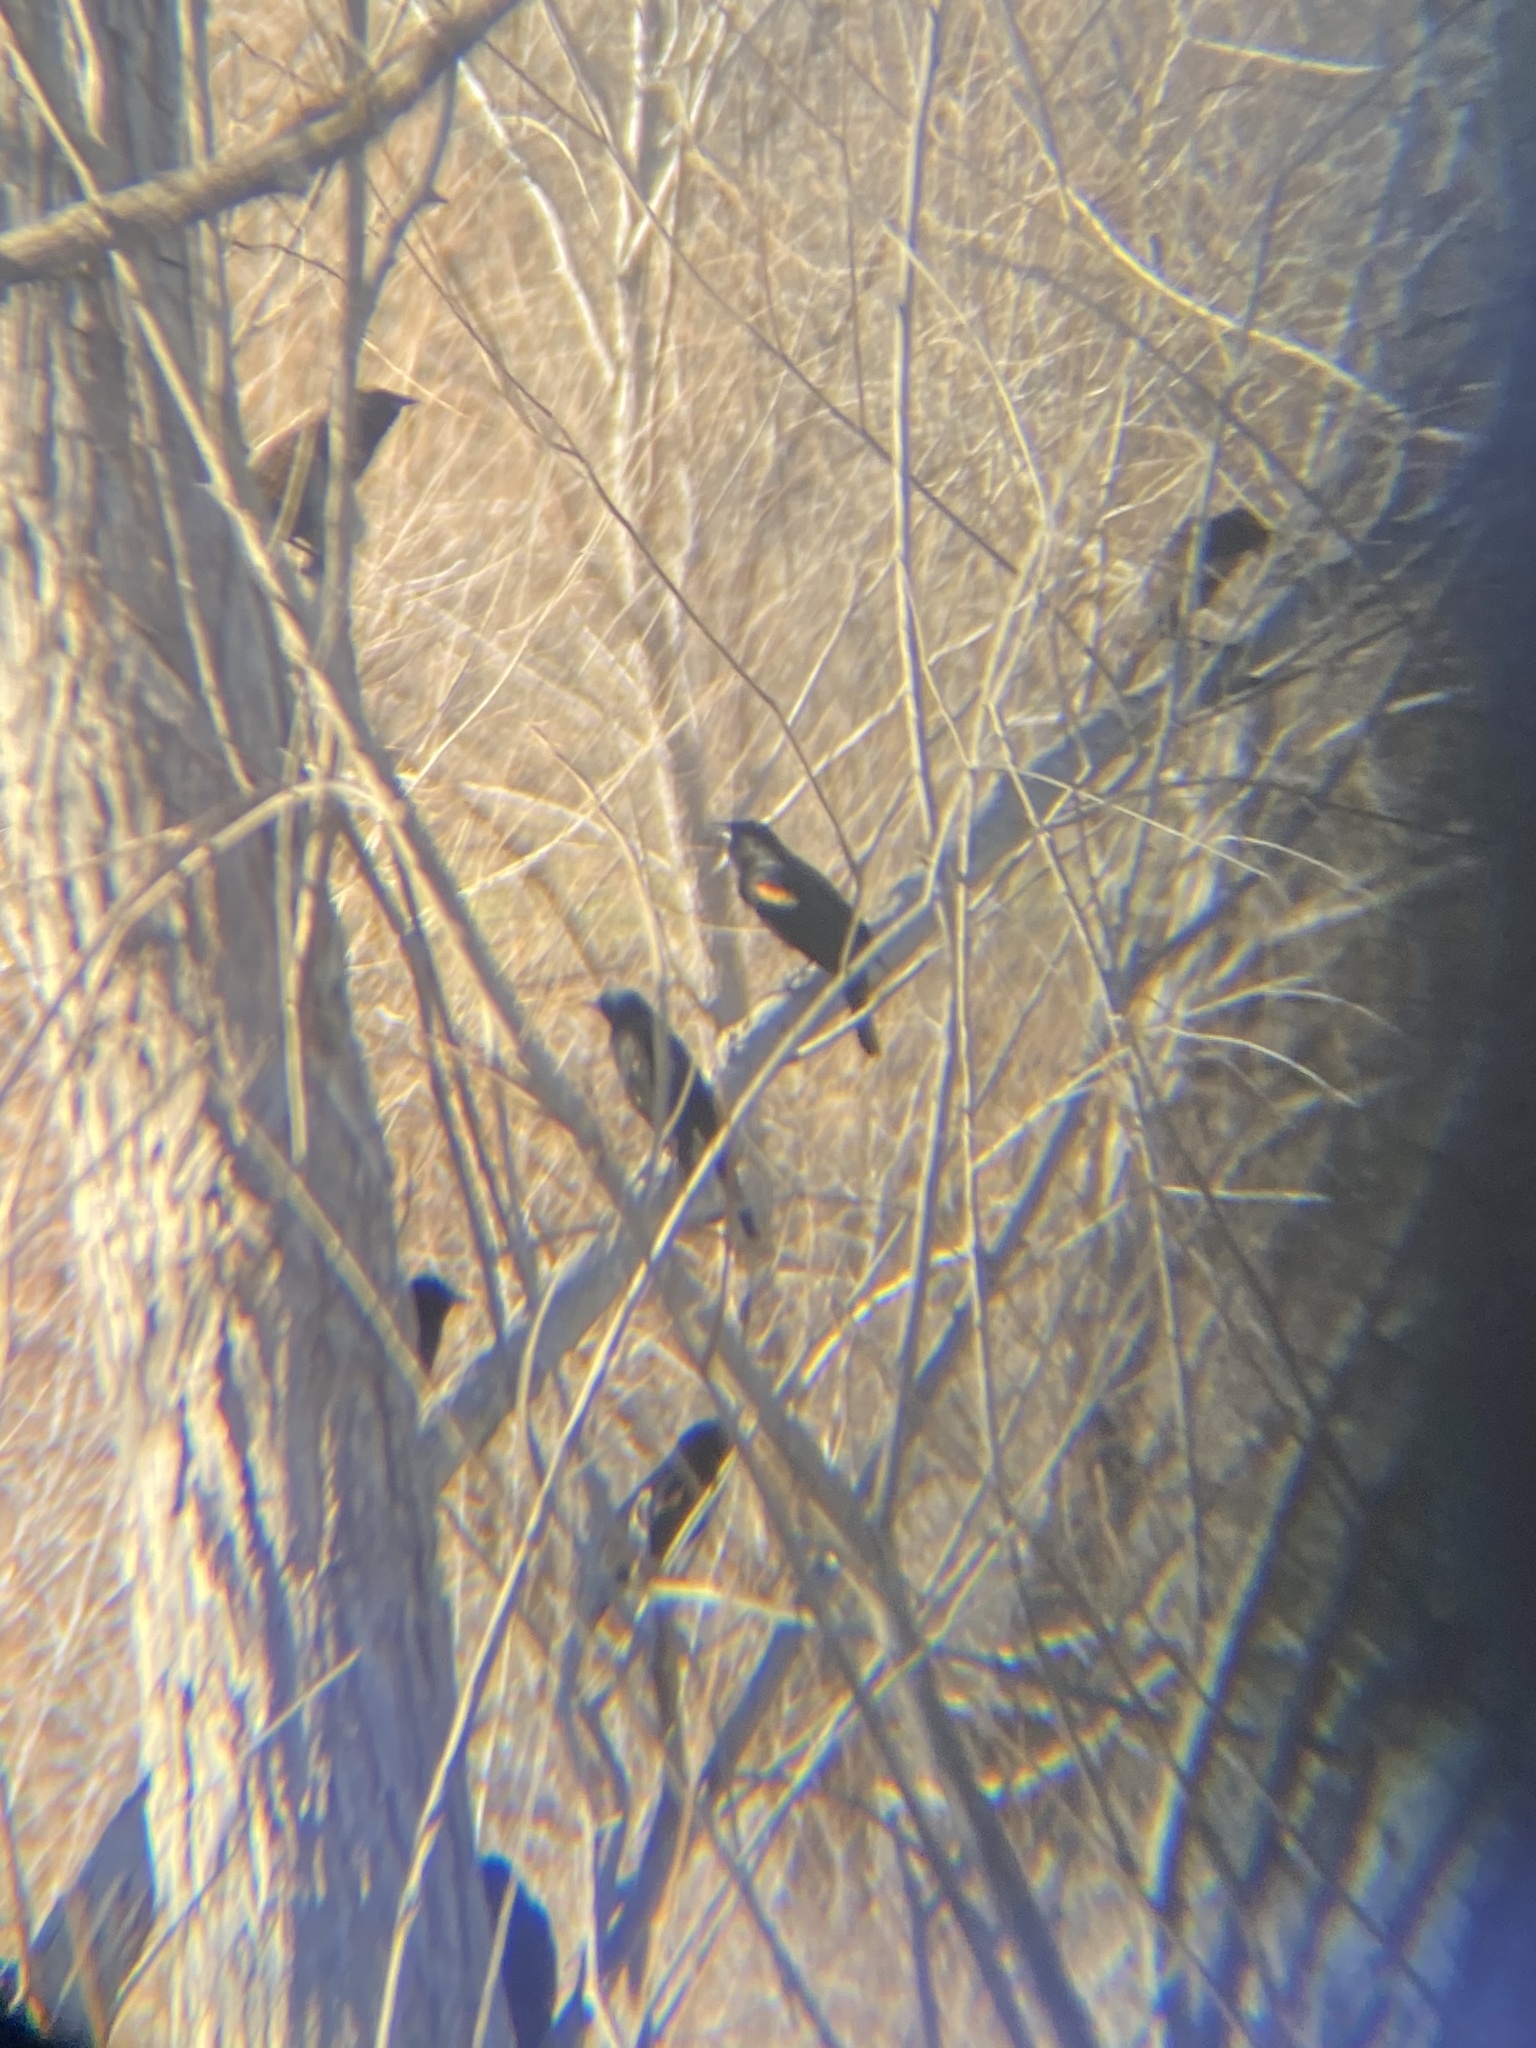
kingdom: Animalia
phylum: Chordata
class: Aves
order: Passeriformes
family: Icteridae
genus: Agelaius
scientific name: Agelaius phoeniceus
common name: Red-winged blackbird
